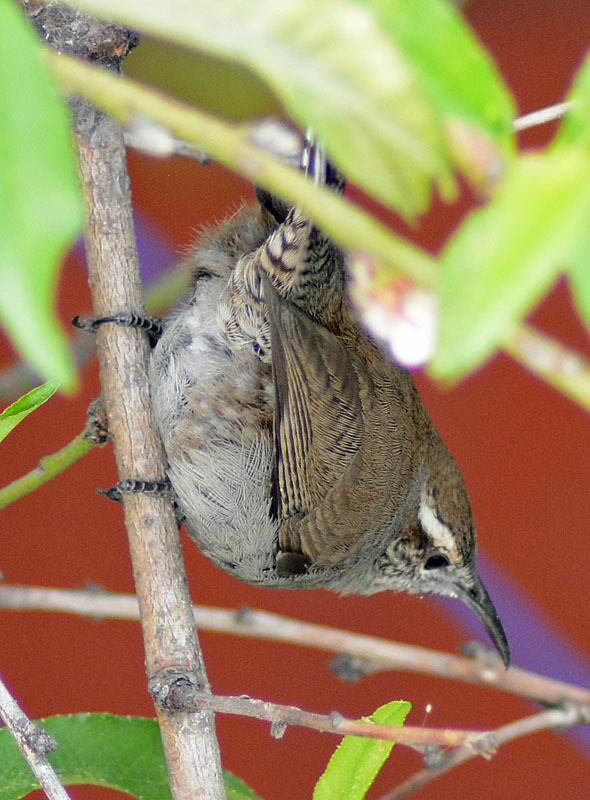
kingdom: Animalia
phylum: Chordata
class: Aves
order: Passeriformes
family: Troglodytidae
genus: Thryomanes
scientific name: Thryomanes bewickii
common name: Bewick's wren
